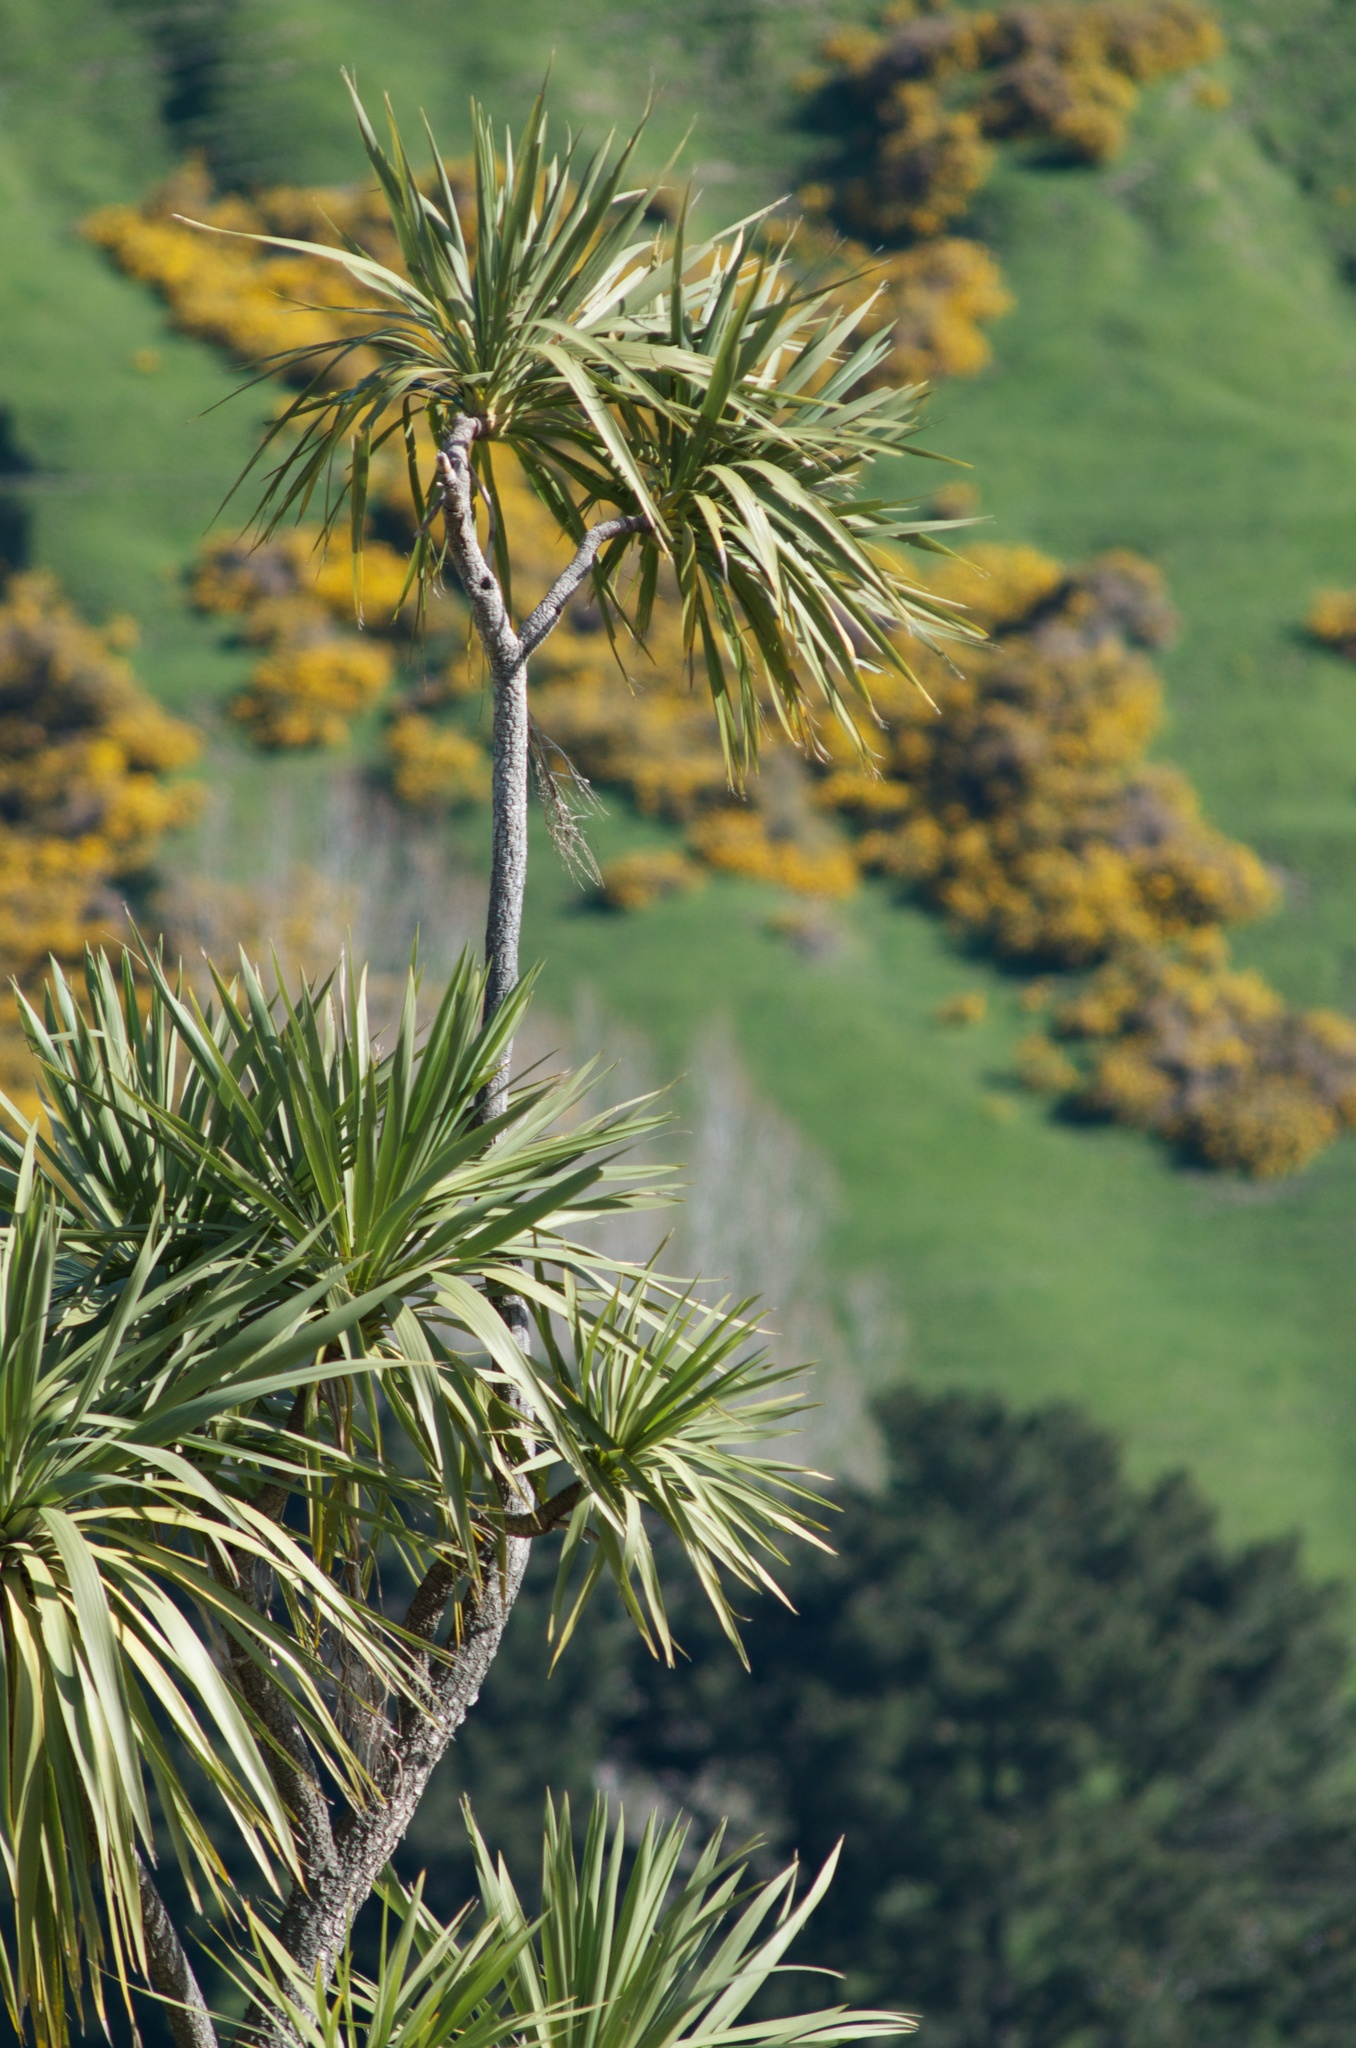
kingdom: Plantae
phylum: Tracheophyta
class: Liliopsida
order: Asparagales
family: Asparagaceae
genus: Cordyline
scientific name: Cordyline australis
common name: Cabbage-palm
